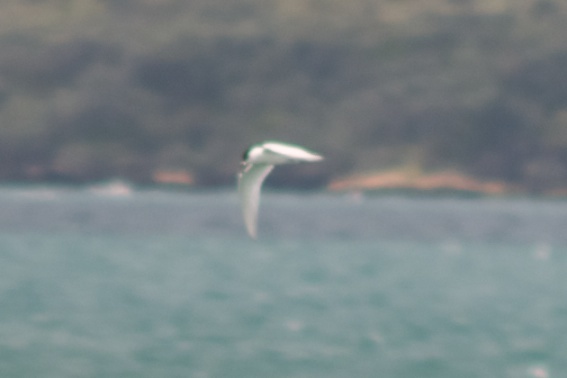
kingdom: Animalia
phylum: Chordata
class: Aves
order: Charadriiformes
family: Laridae
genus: Sterna
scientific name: Sterna striata
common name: White-fronted tern
